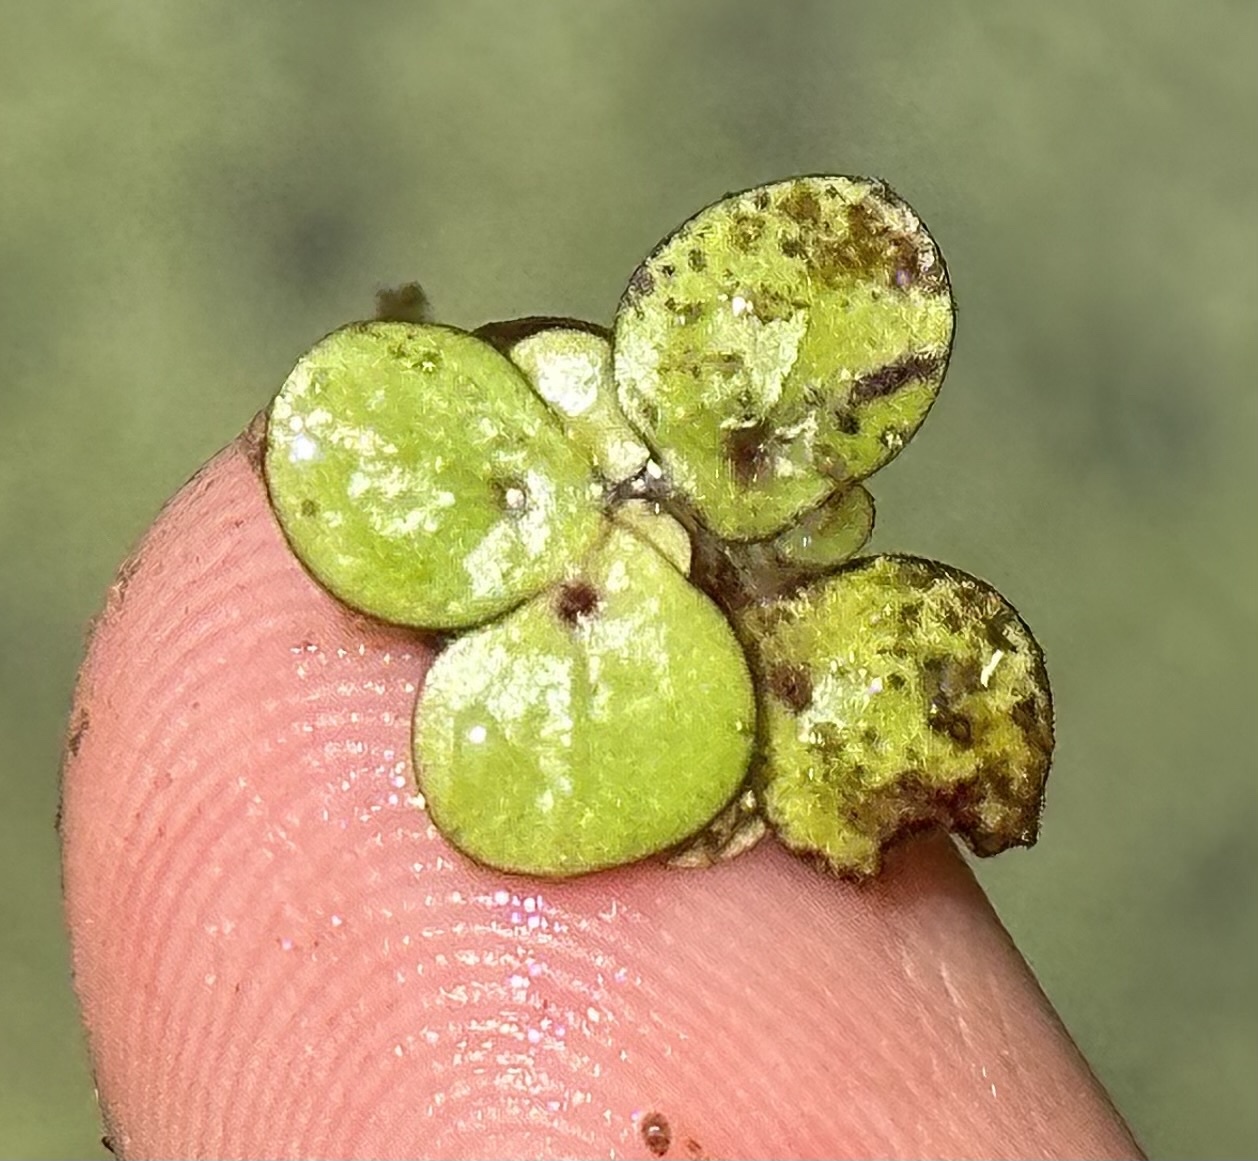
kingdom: Plantae
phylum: Tracheophyta
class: Liliopsida
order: Alismatales
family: Araceae
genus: Spirodela
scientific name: Spirodela polyrhiza
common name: Great duckweed
